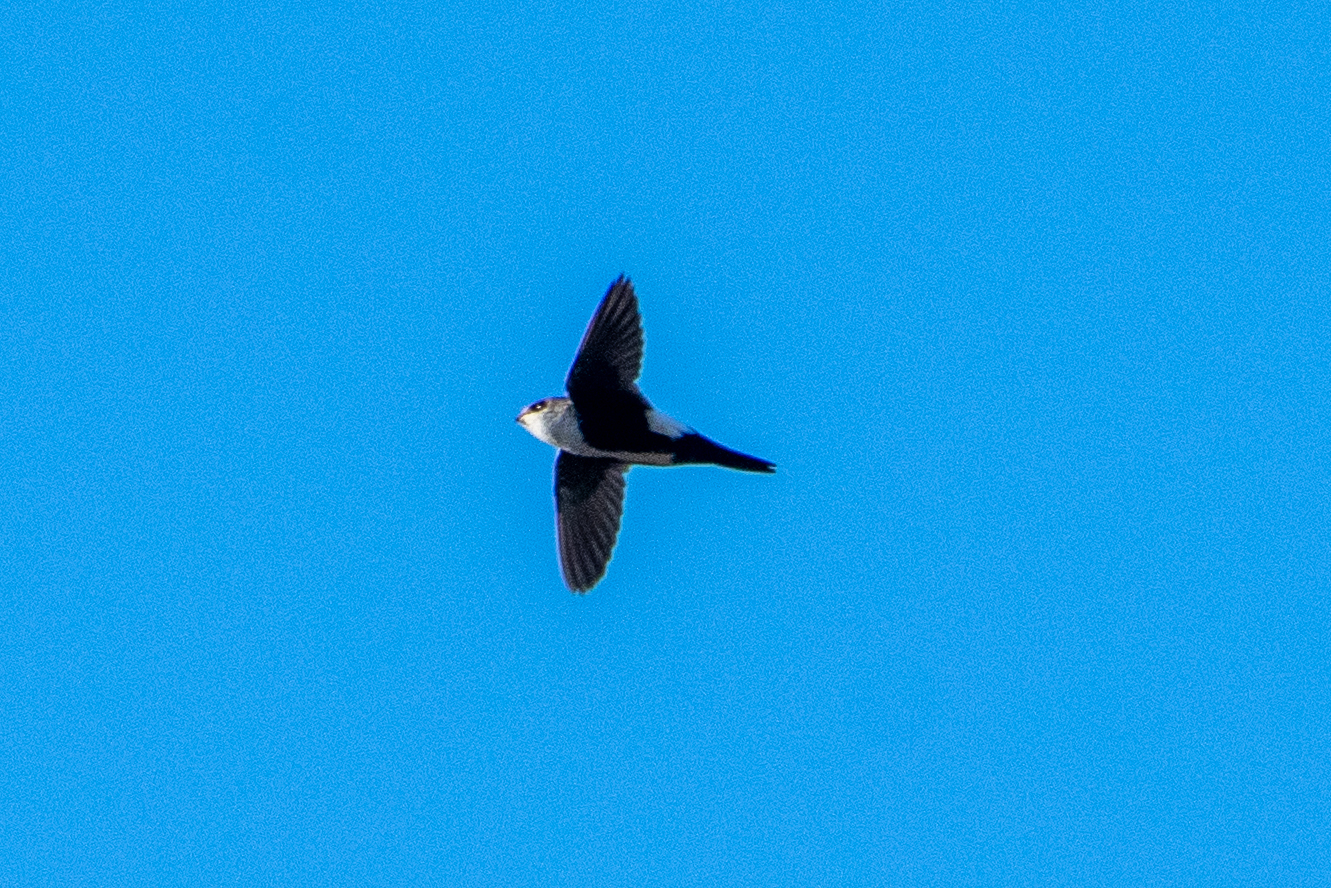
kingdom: Animalia
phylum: Chordata
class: Aves
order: Apodiformes
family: Apodidae
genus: Aeronautes
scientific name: Aeronautes saxatalis
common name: White-throated swift
